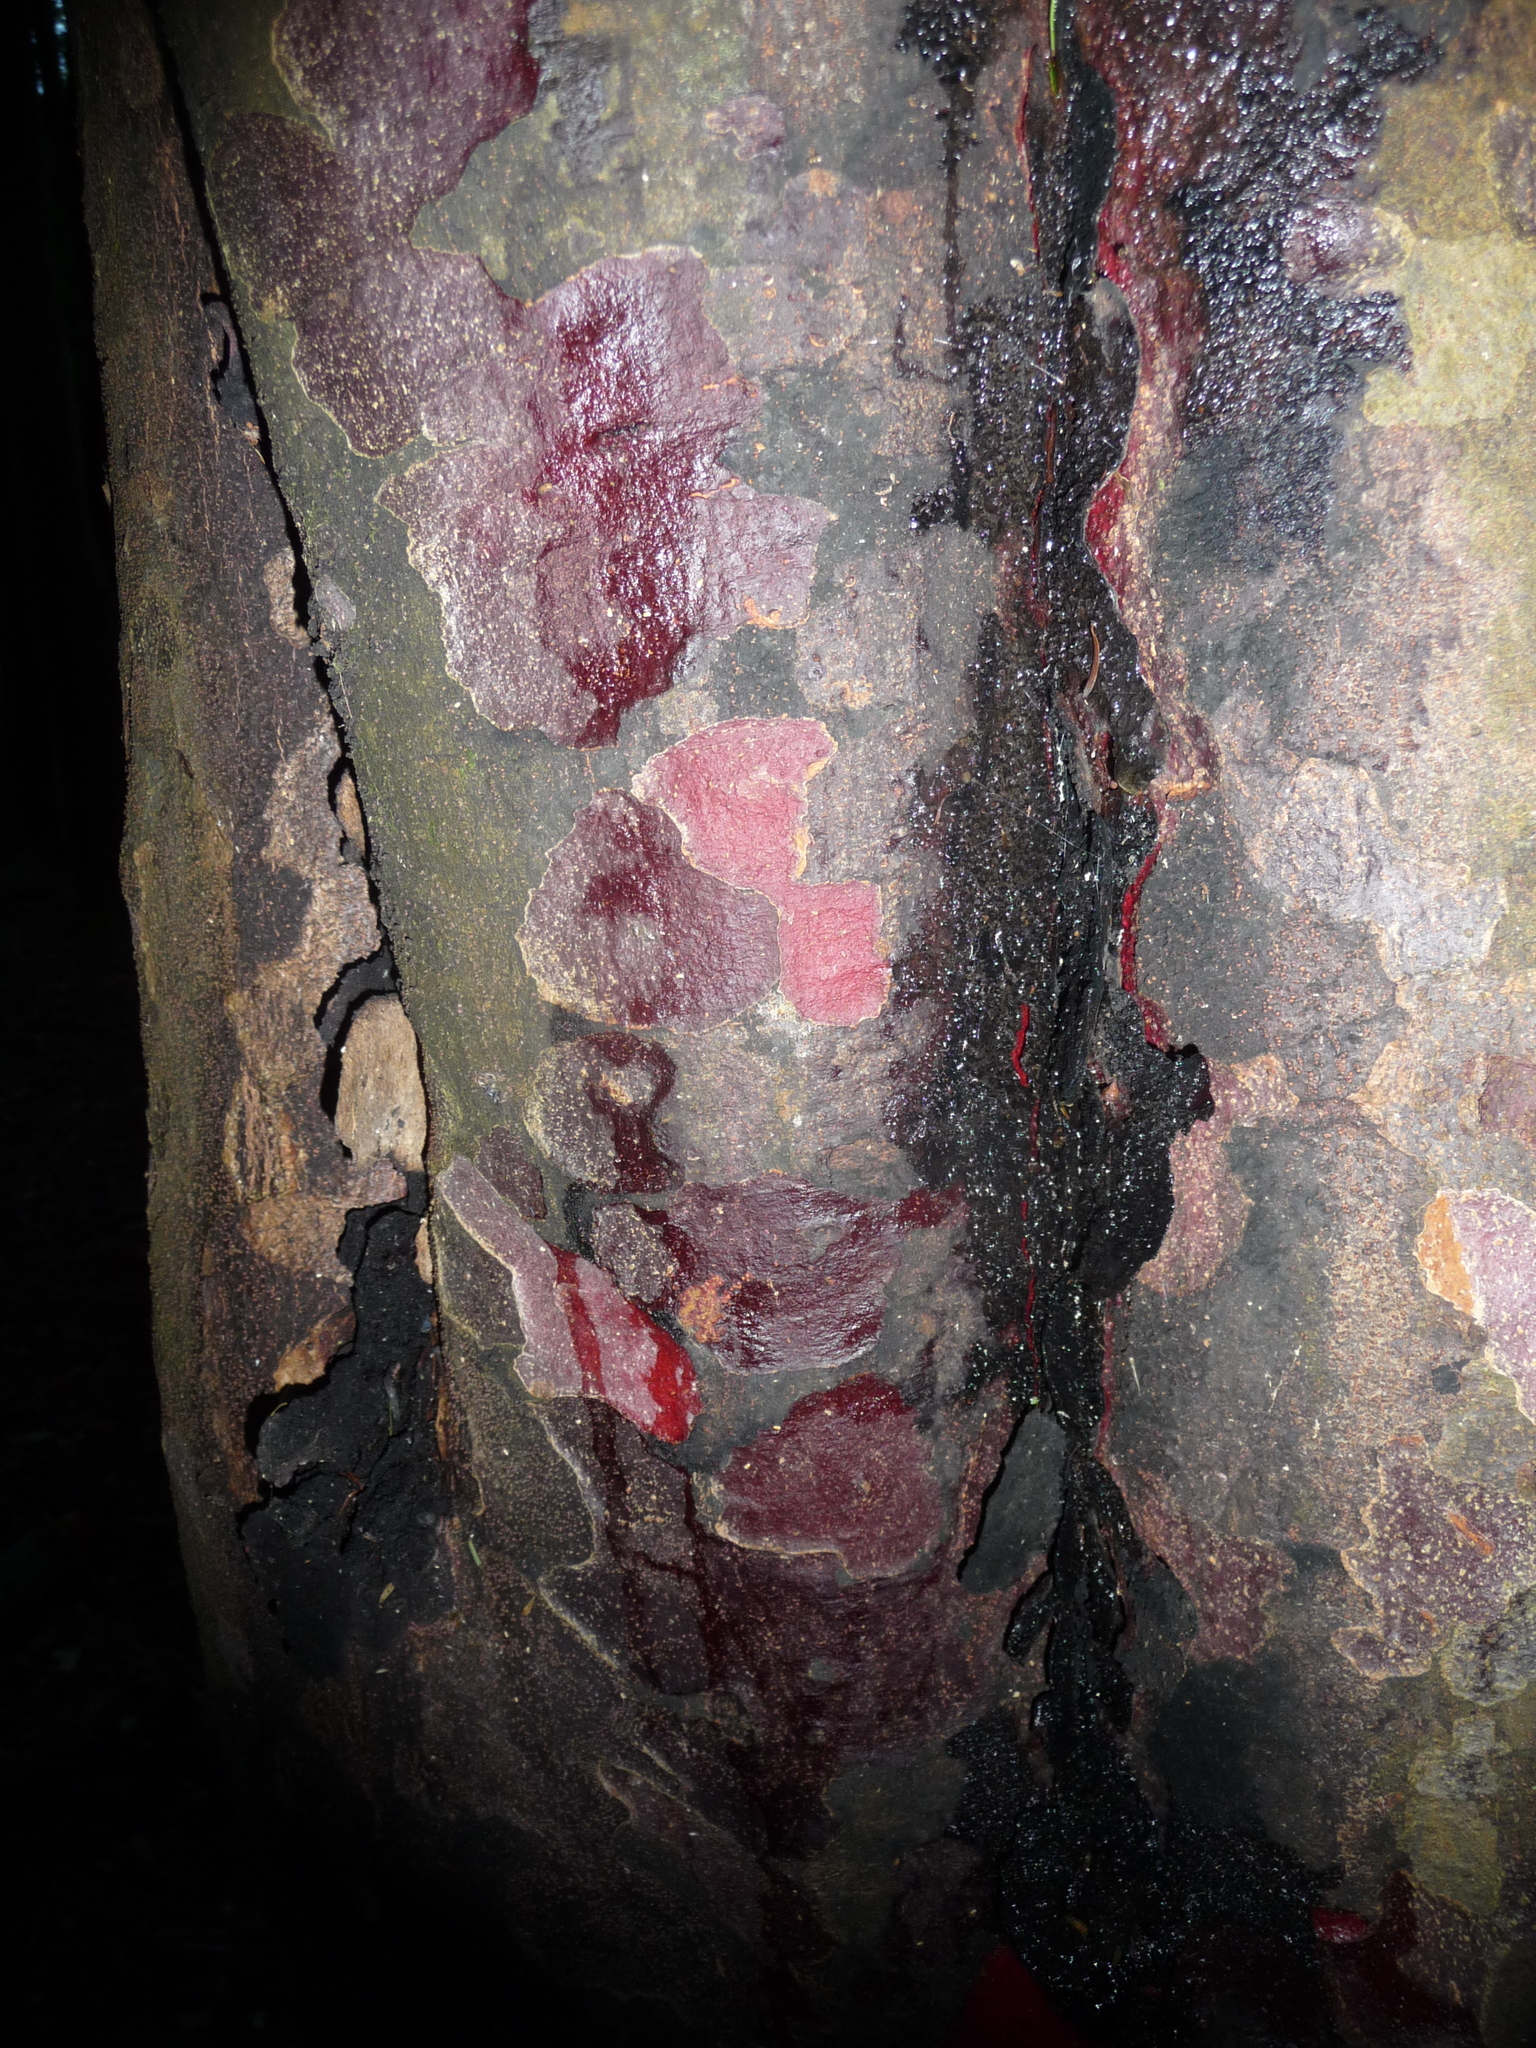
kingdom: Plantae
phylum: Tracheophyta
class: Pinopsida
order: Pinales
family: Podocarpaceae
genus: Prumnopitys
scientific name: Prumnopitys taxifolia
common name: Matai
